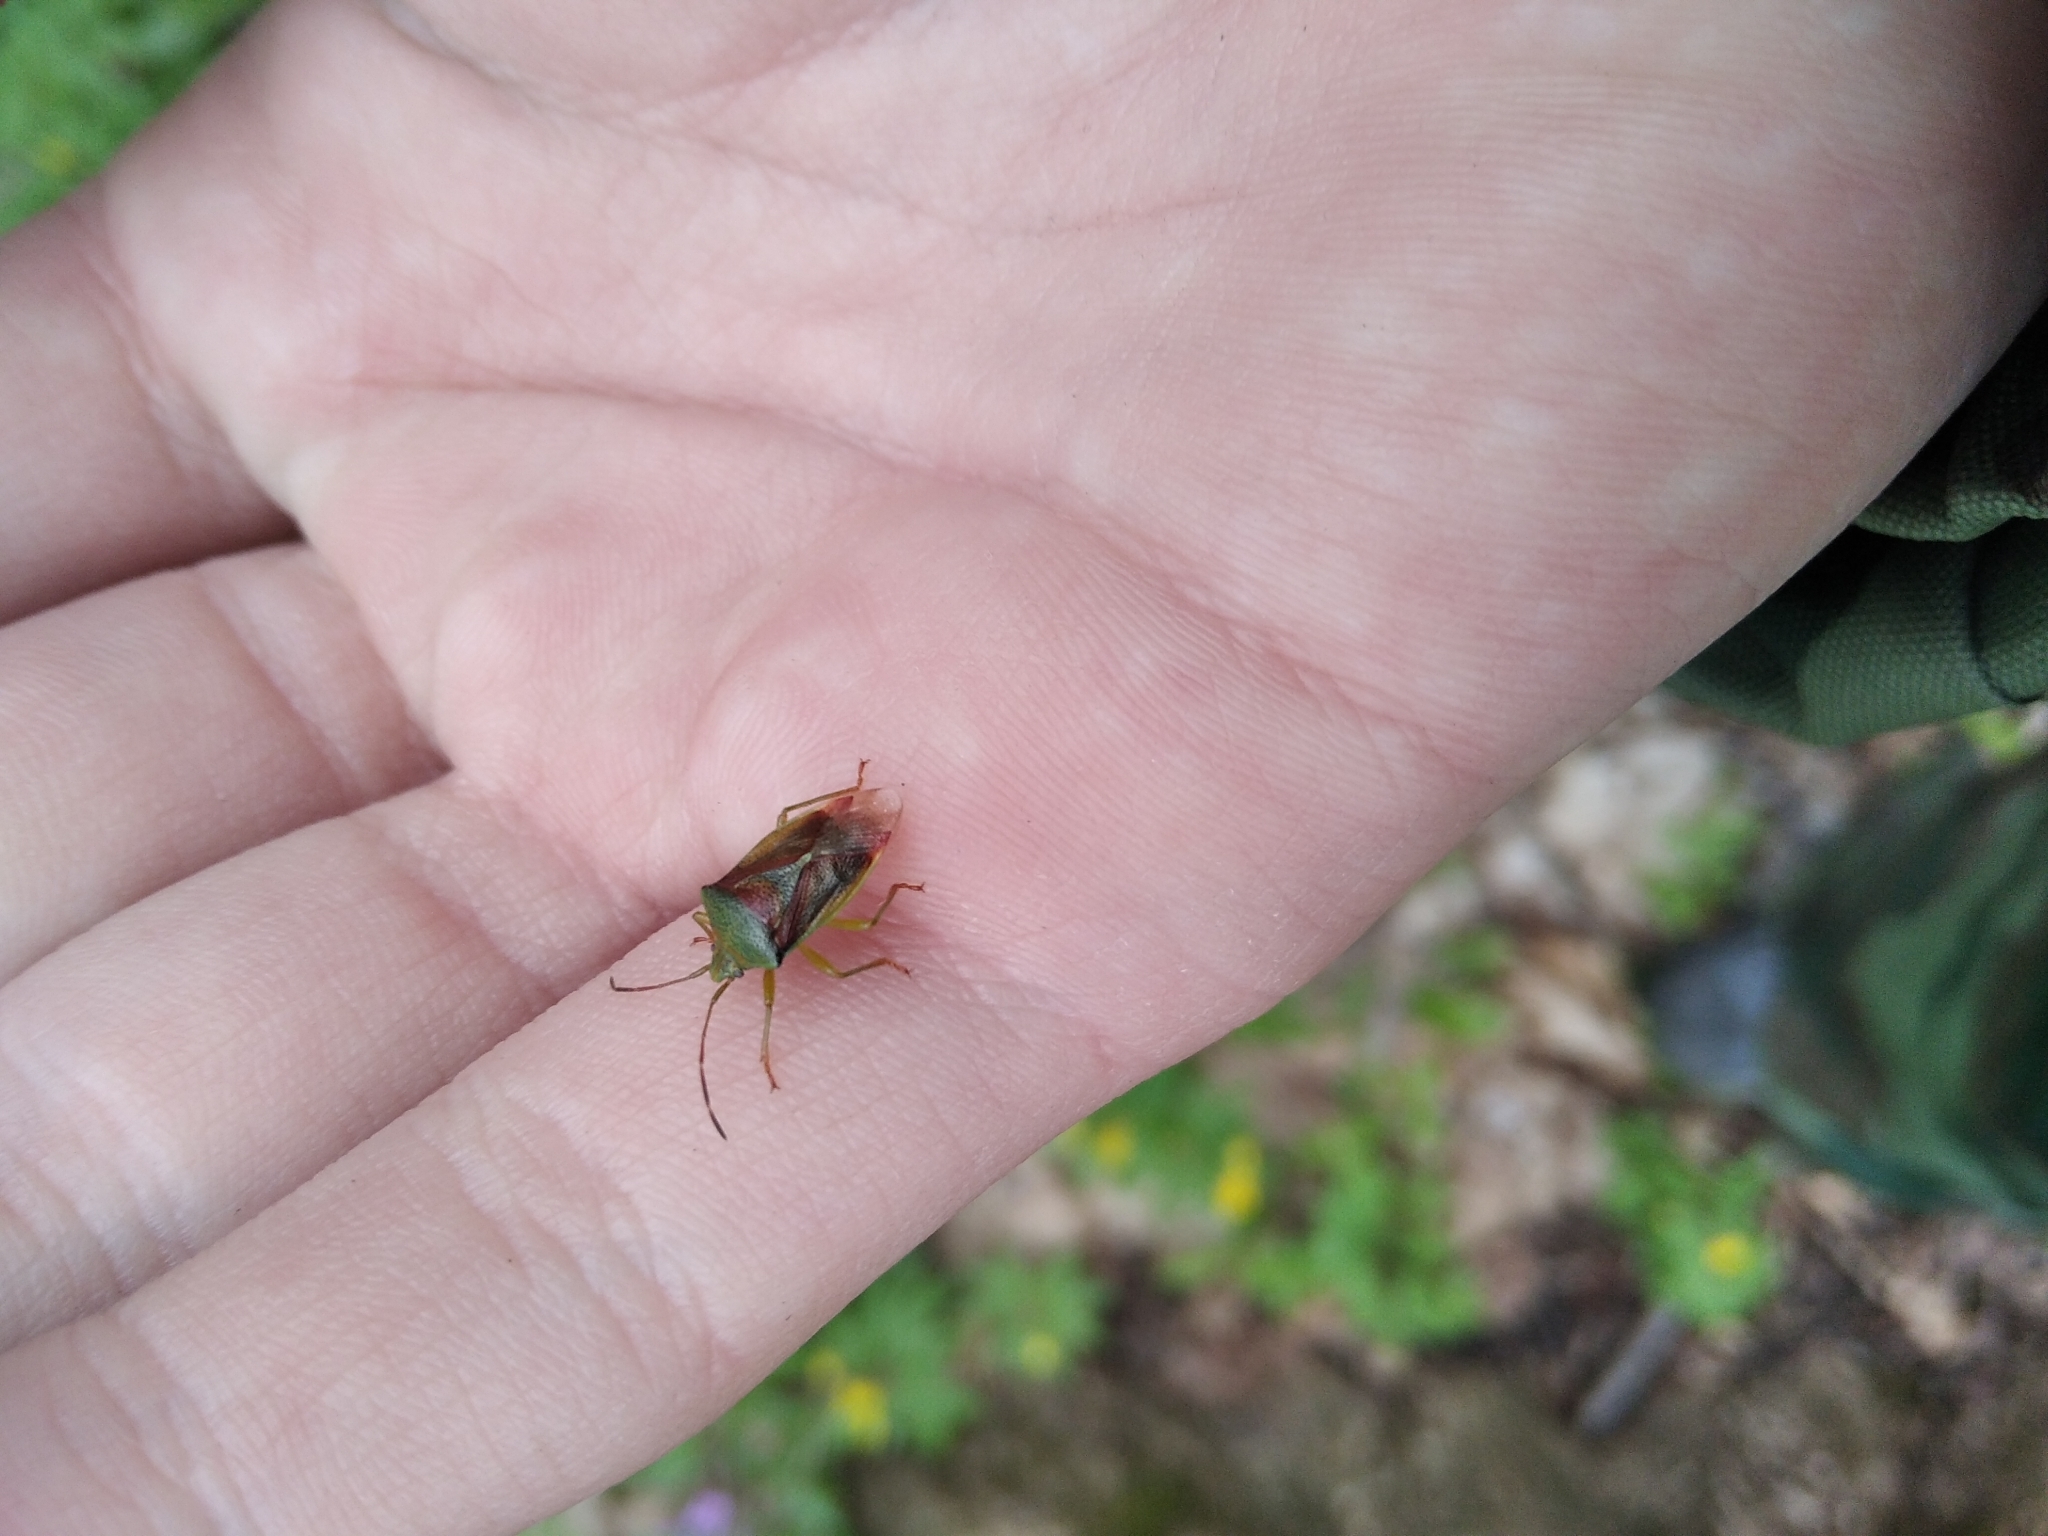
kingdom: Animalia
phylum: Arthropoda
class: Insecta
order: Hemiptera
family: Acanthosomatidae
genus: Elasmostethus
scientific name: Elasmostethus
